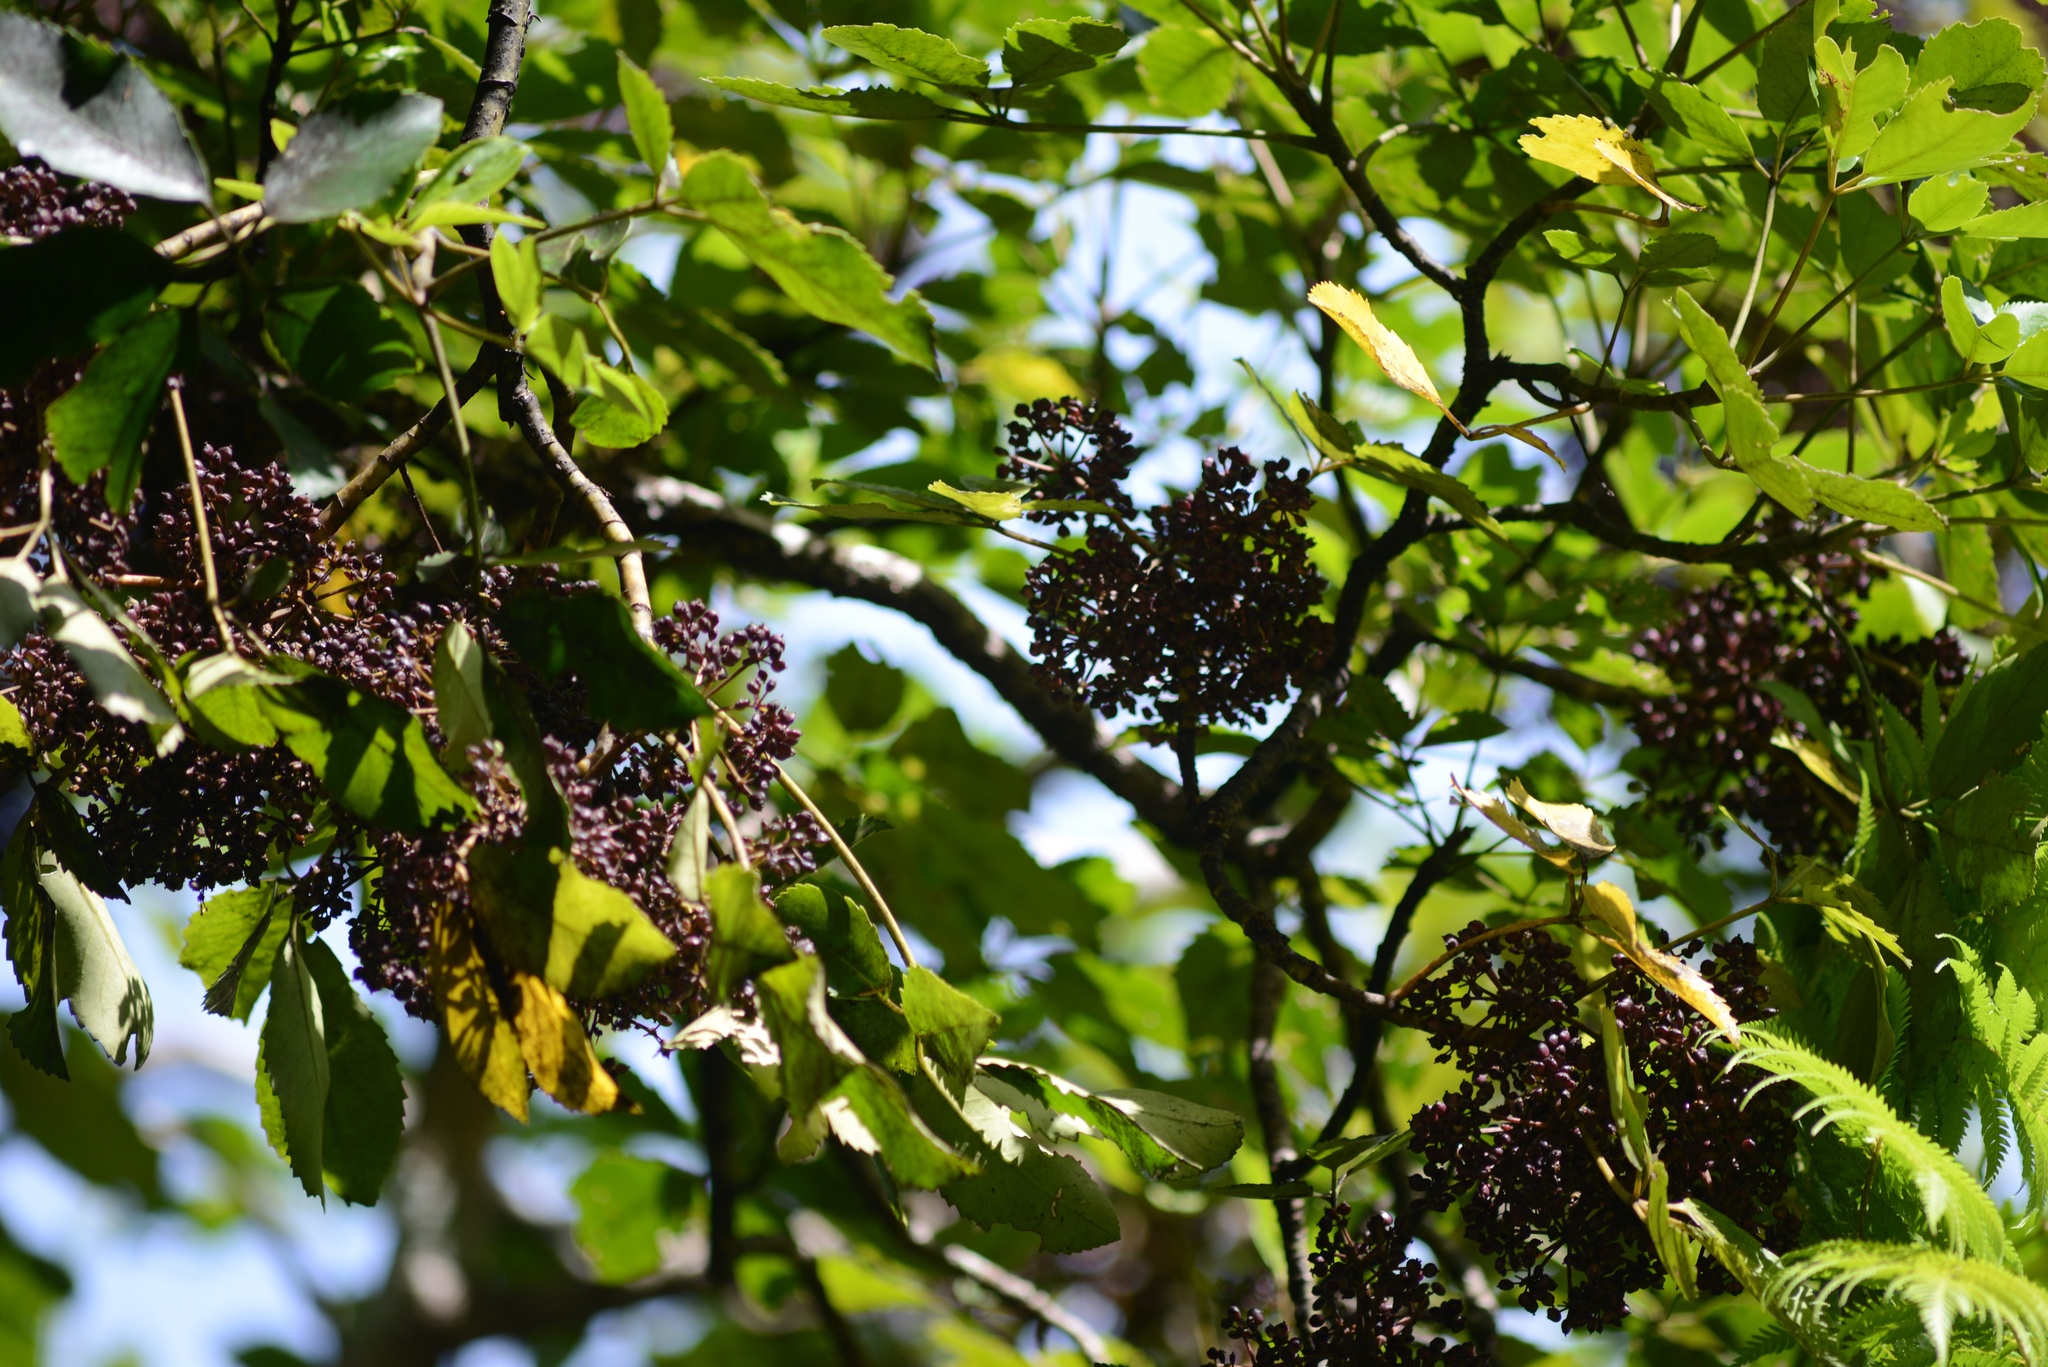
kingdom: Plantae
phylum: Tracheophyta
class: Magnoliopsida
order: Apiales
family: Araliaceae
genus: Neopanax
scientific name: Neopanax arboreus
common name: Five-fingers
